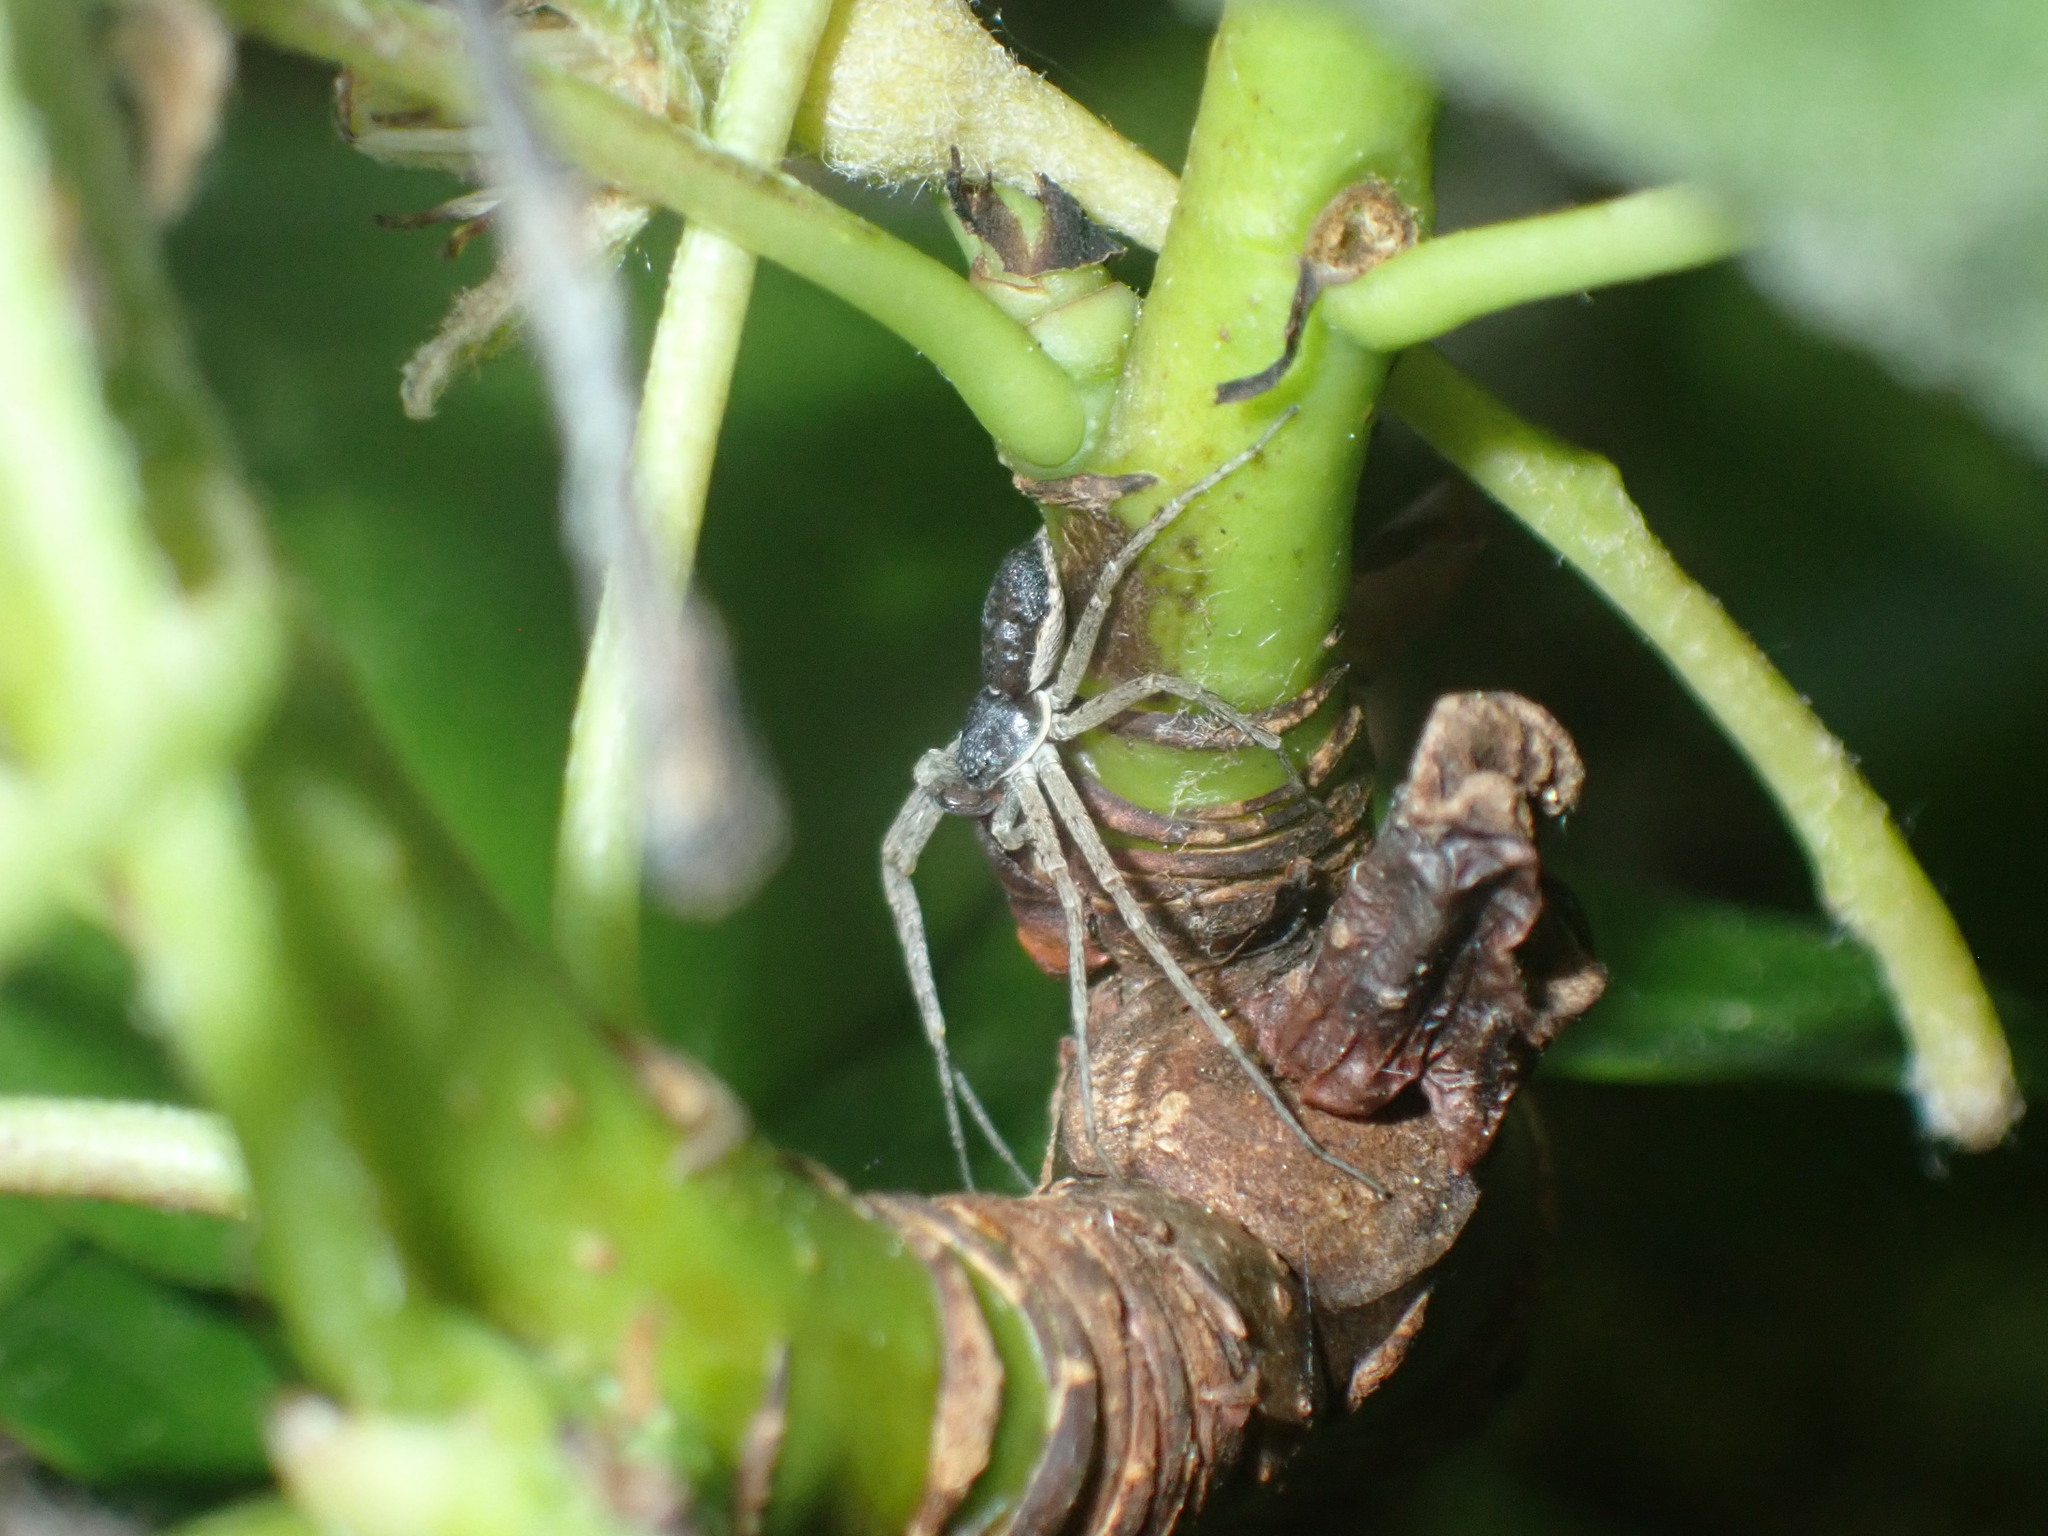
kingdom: Animalia
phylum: Arthropoda
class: Arachnida
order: Araneae
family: Philodromidae
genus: Philodromus
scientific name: Philodromus dispar
